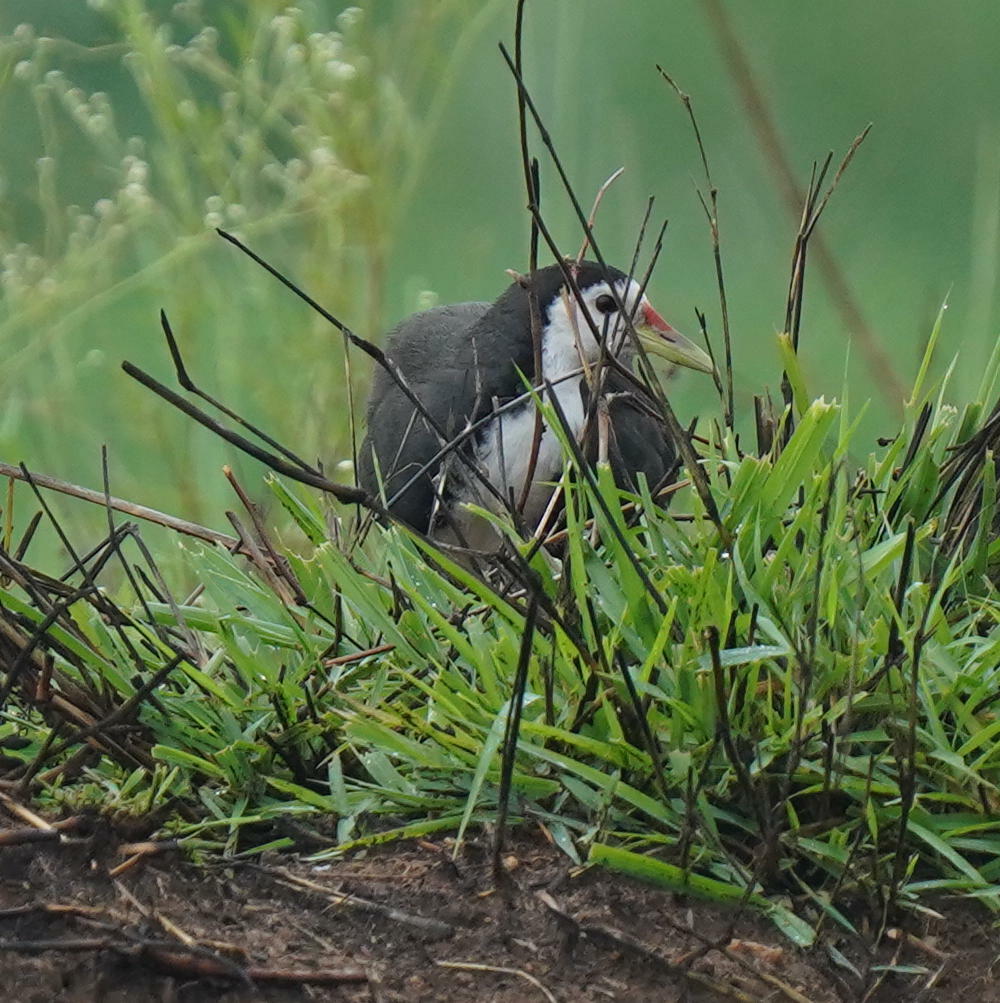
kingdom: Animalia
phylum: Chordata
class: Aves
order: Gruiformes
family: Rallidae
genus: Amaurornis
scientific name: Amaurornis phoenicurus
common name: White-breasted waterhen
